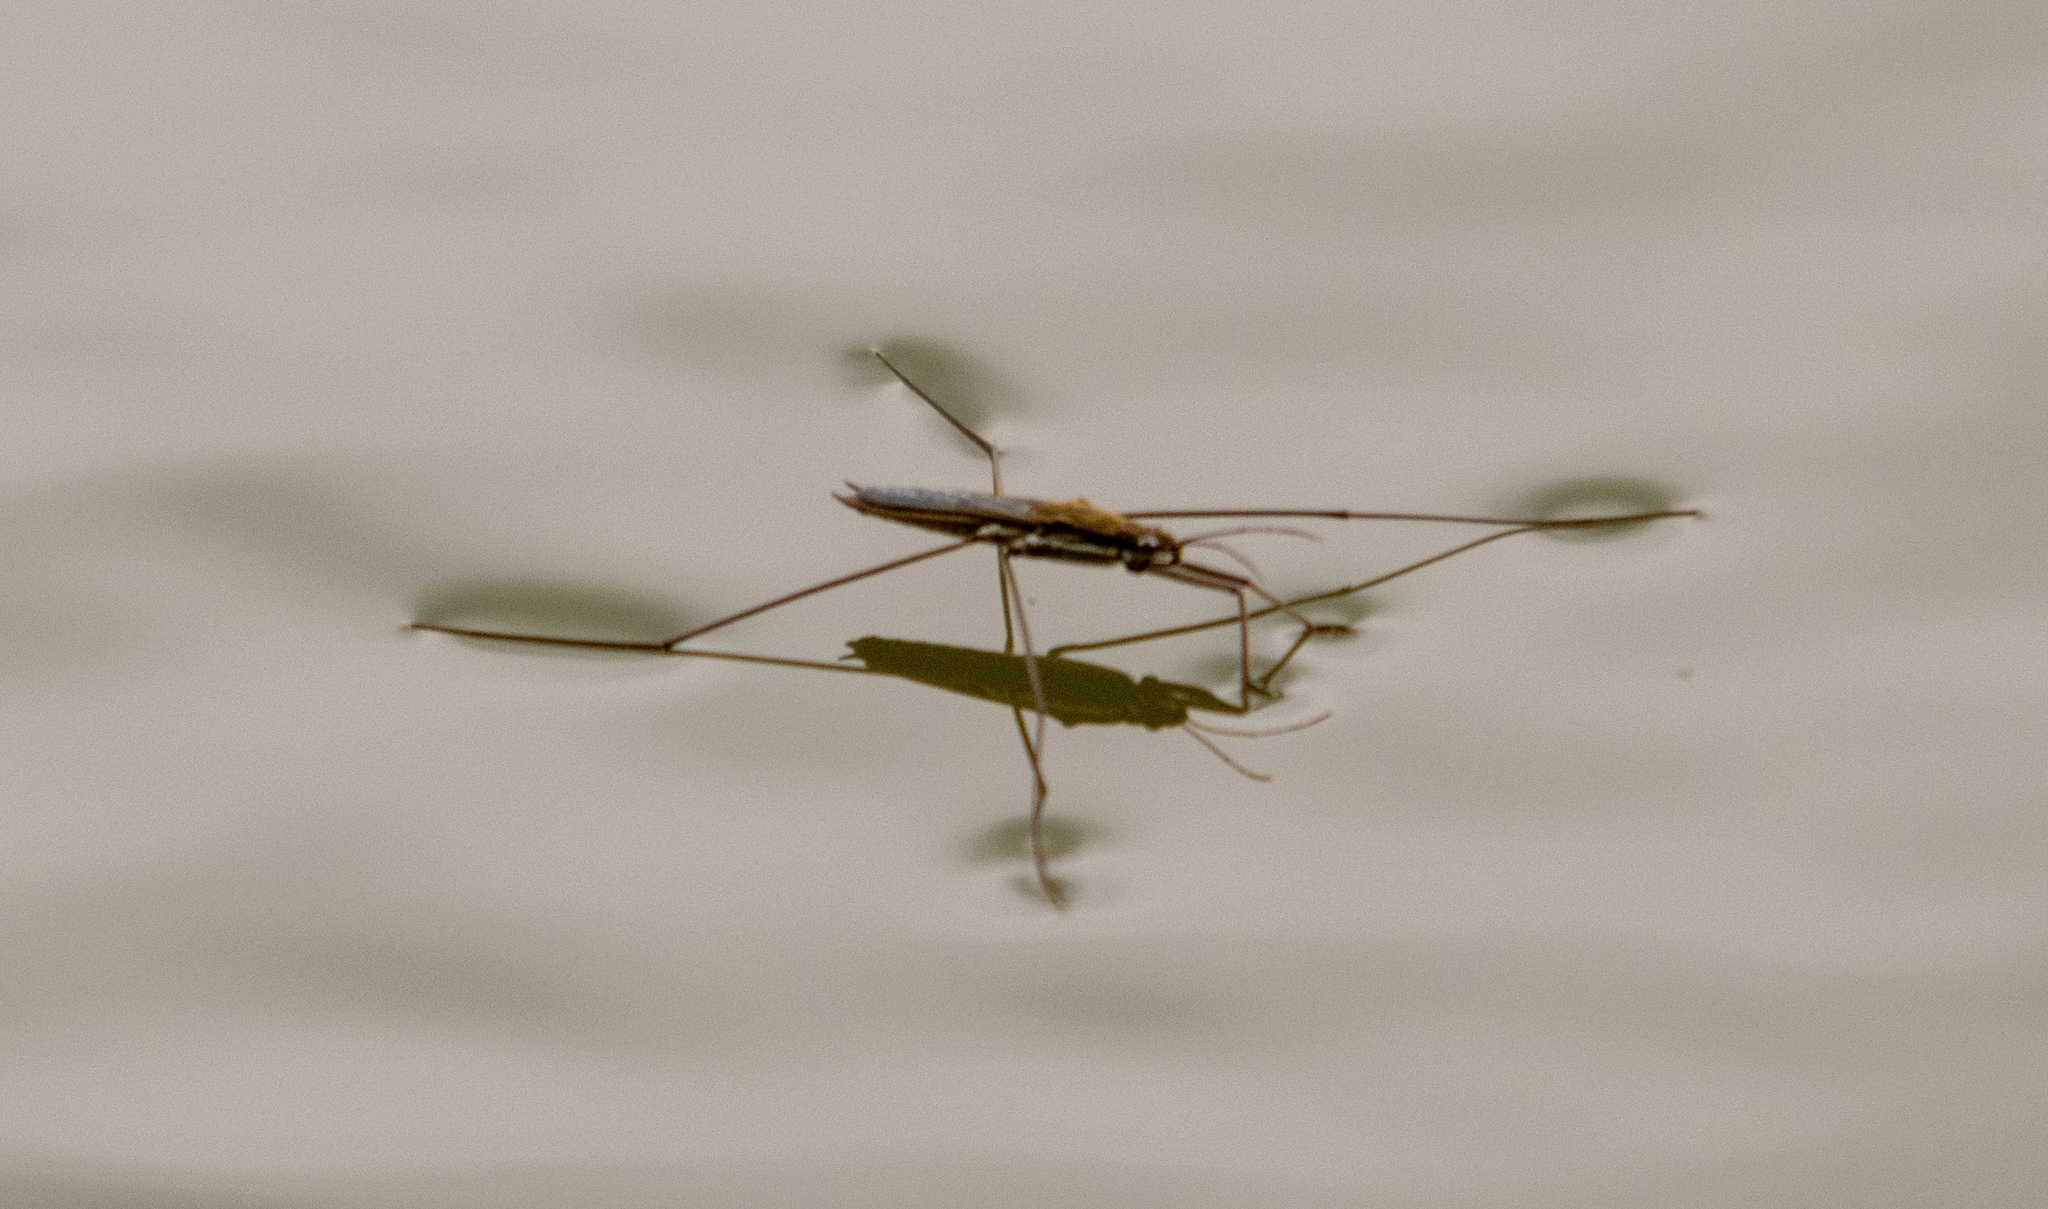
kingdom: Animalia
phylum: Arthropoda
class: Insecta
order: Hemiptera
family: Gerridae
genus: Aquarius
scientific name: Aquarius paludum
